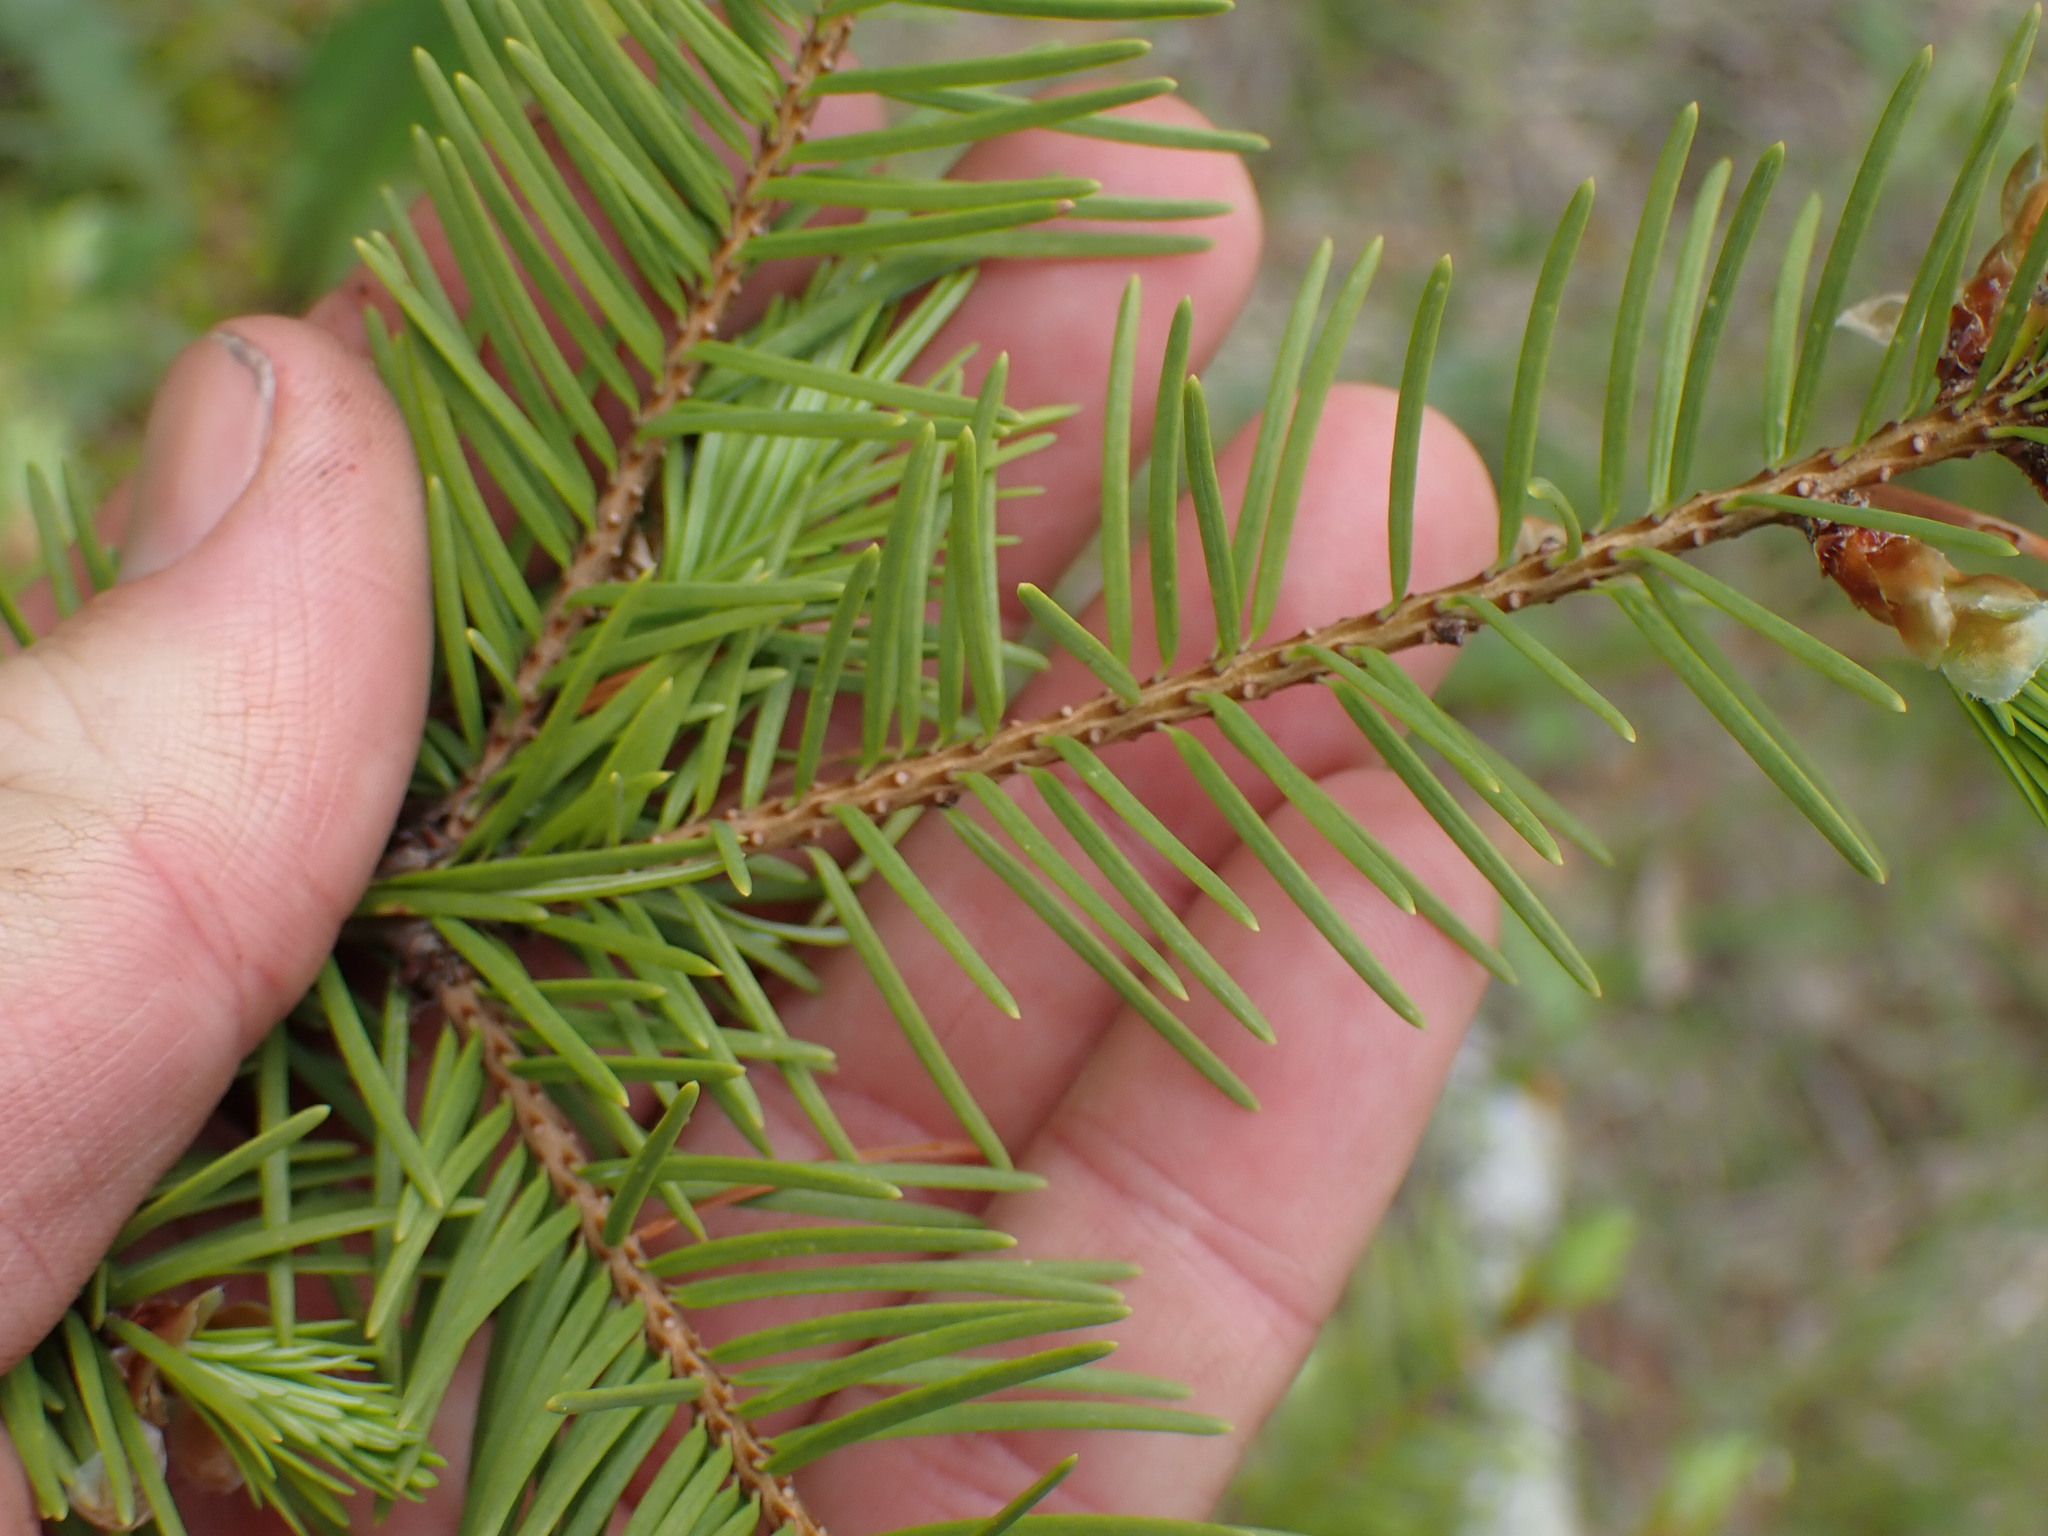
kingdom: Plantae
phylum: Tracheophyta
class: Pinopsida
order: Pinales
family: Pinaceae
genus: Pseudotsuga
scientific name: Pseudotsuga menziesii
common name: Douglas fir
